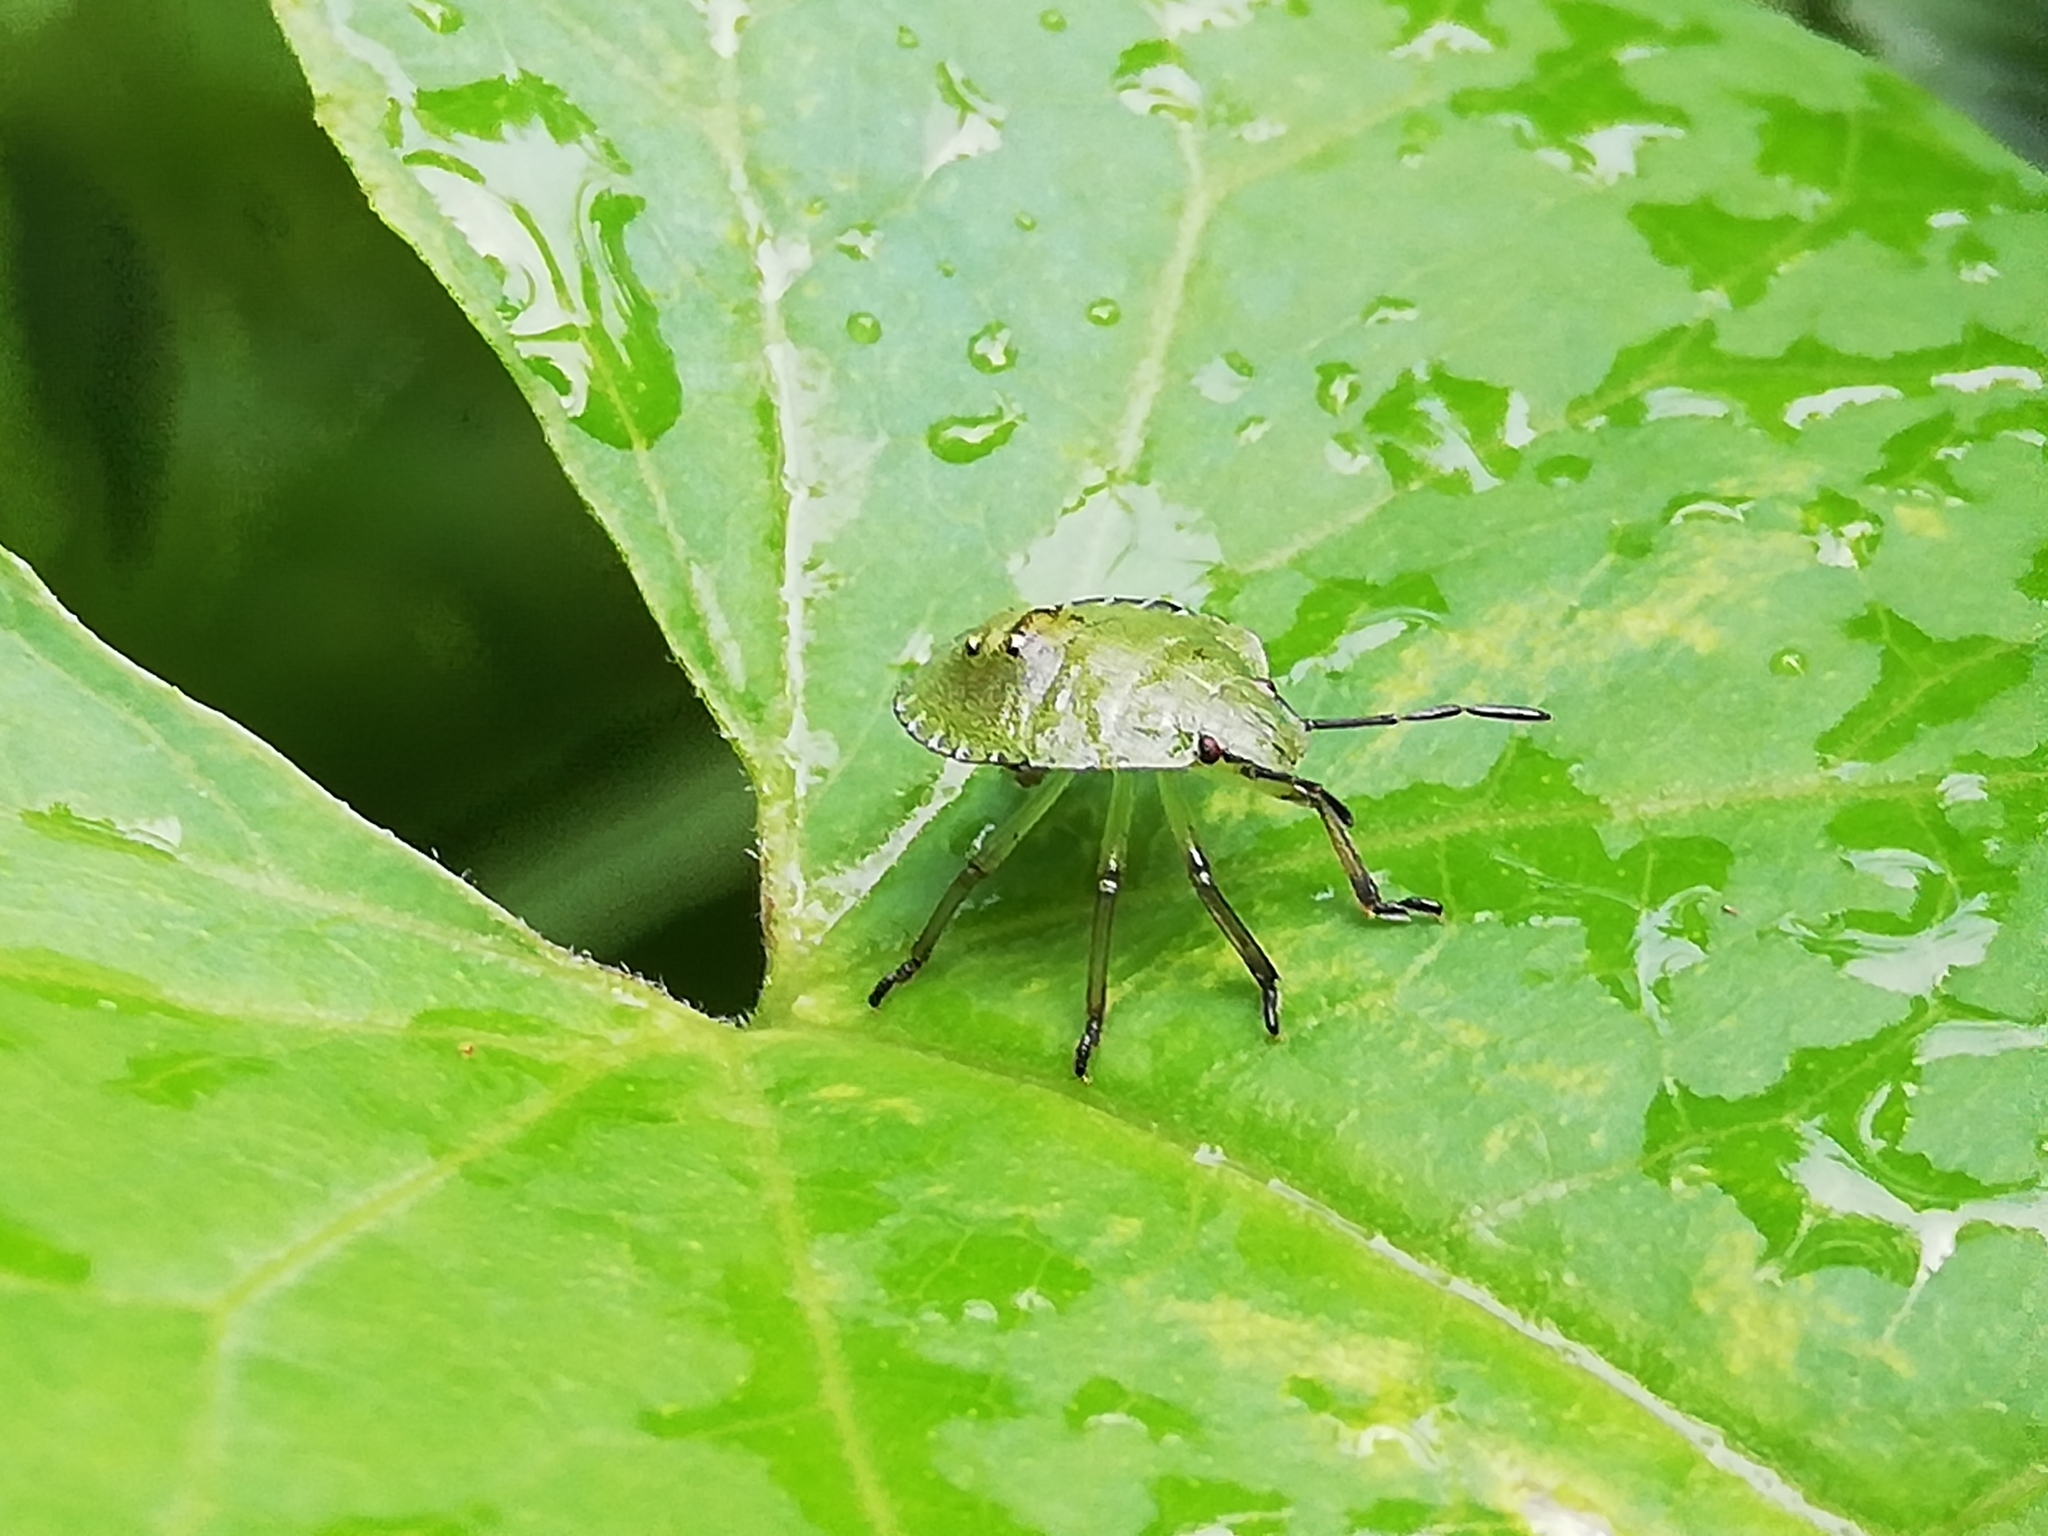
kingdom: Animalia
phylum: Arthropoda
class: Insecta
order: Hemiptera
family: Pentatomidae
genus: Palomena
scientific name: Palomena prasina
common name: Green shieldbug
